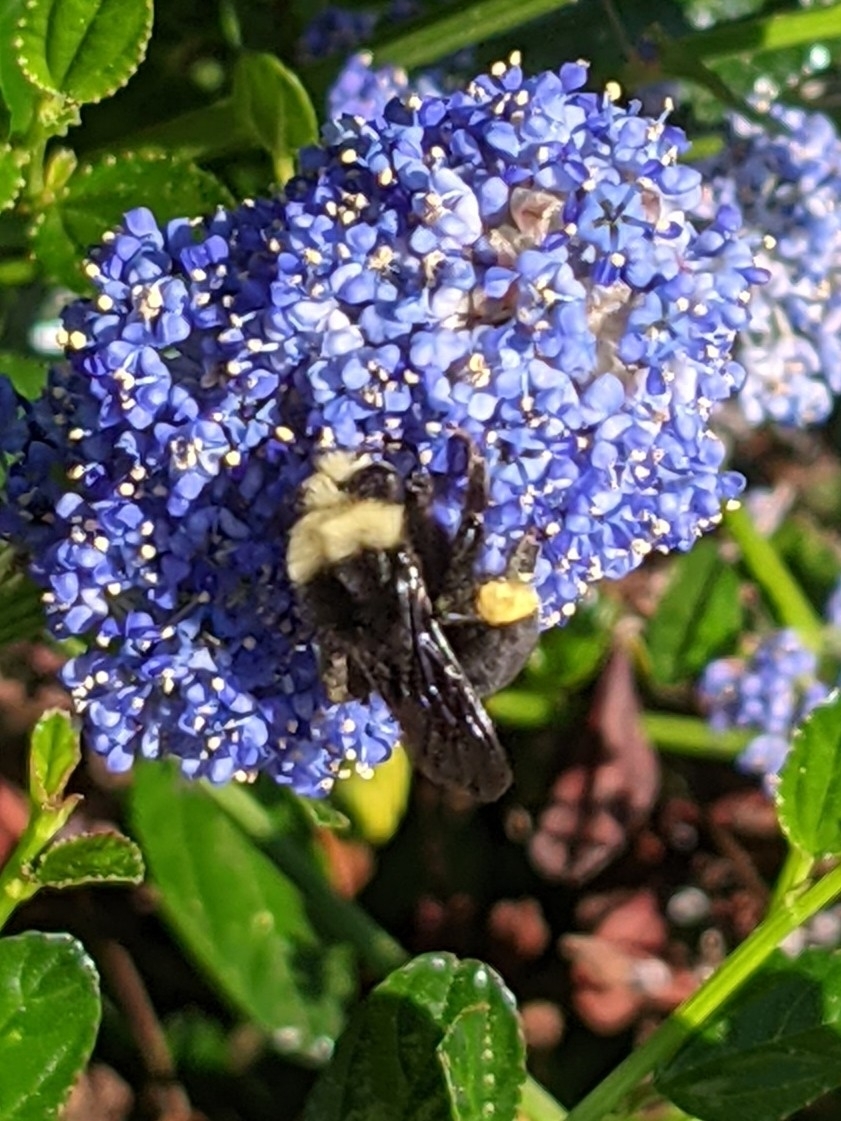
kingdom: Animalia
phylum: Arthropoda
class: Insecta
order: Hymenoptera
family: Apidae
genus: Bombus
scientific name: Bombus vosnesenskii
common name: Vosnesensky bumble bee
